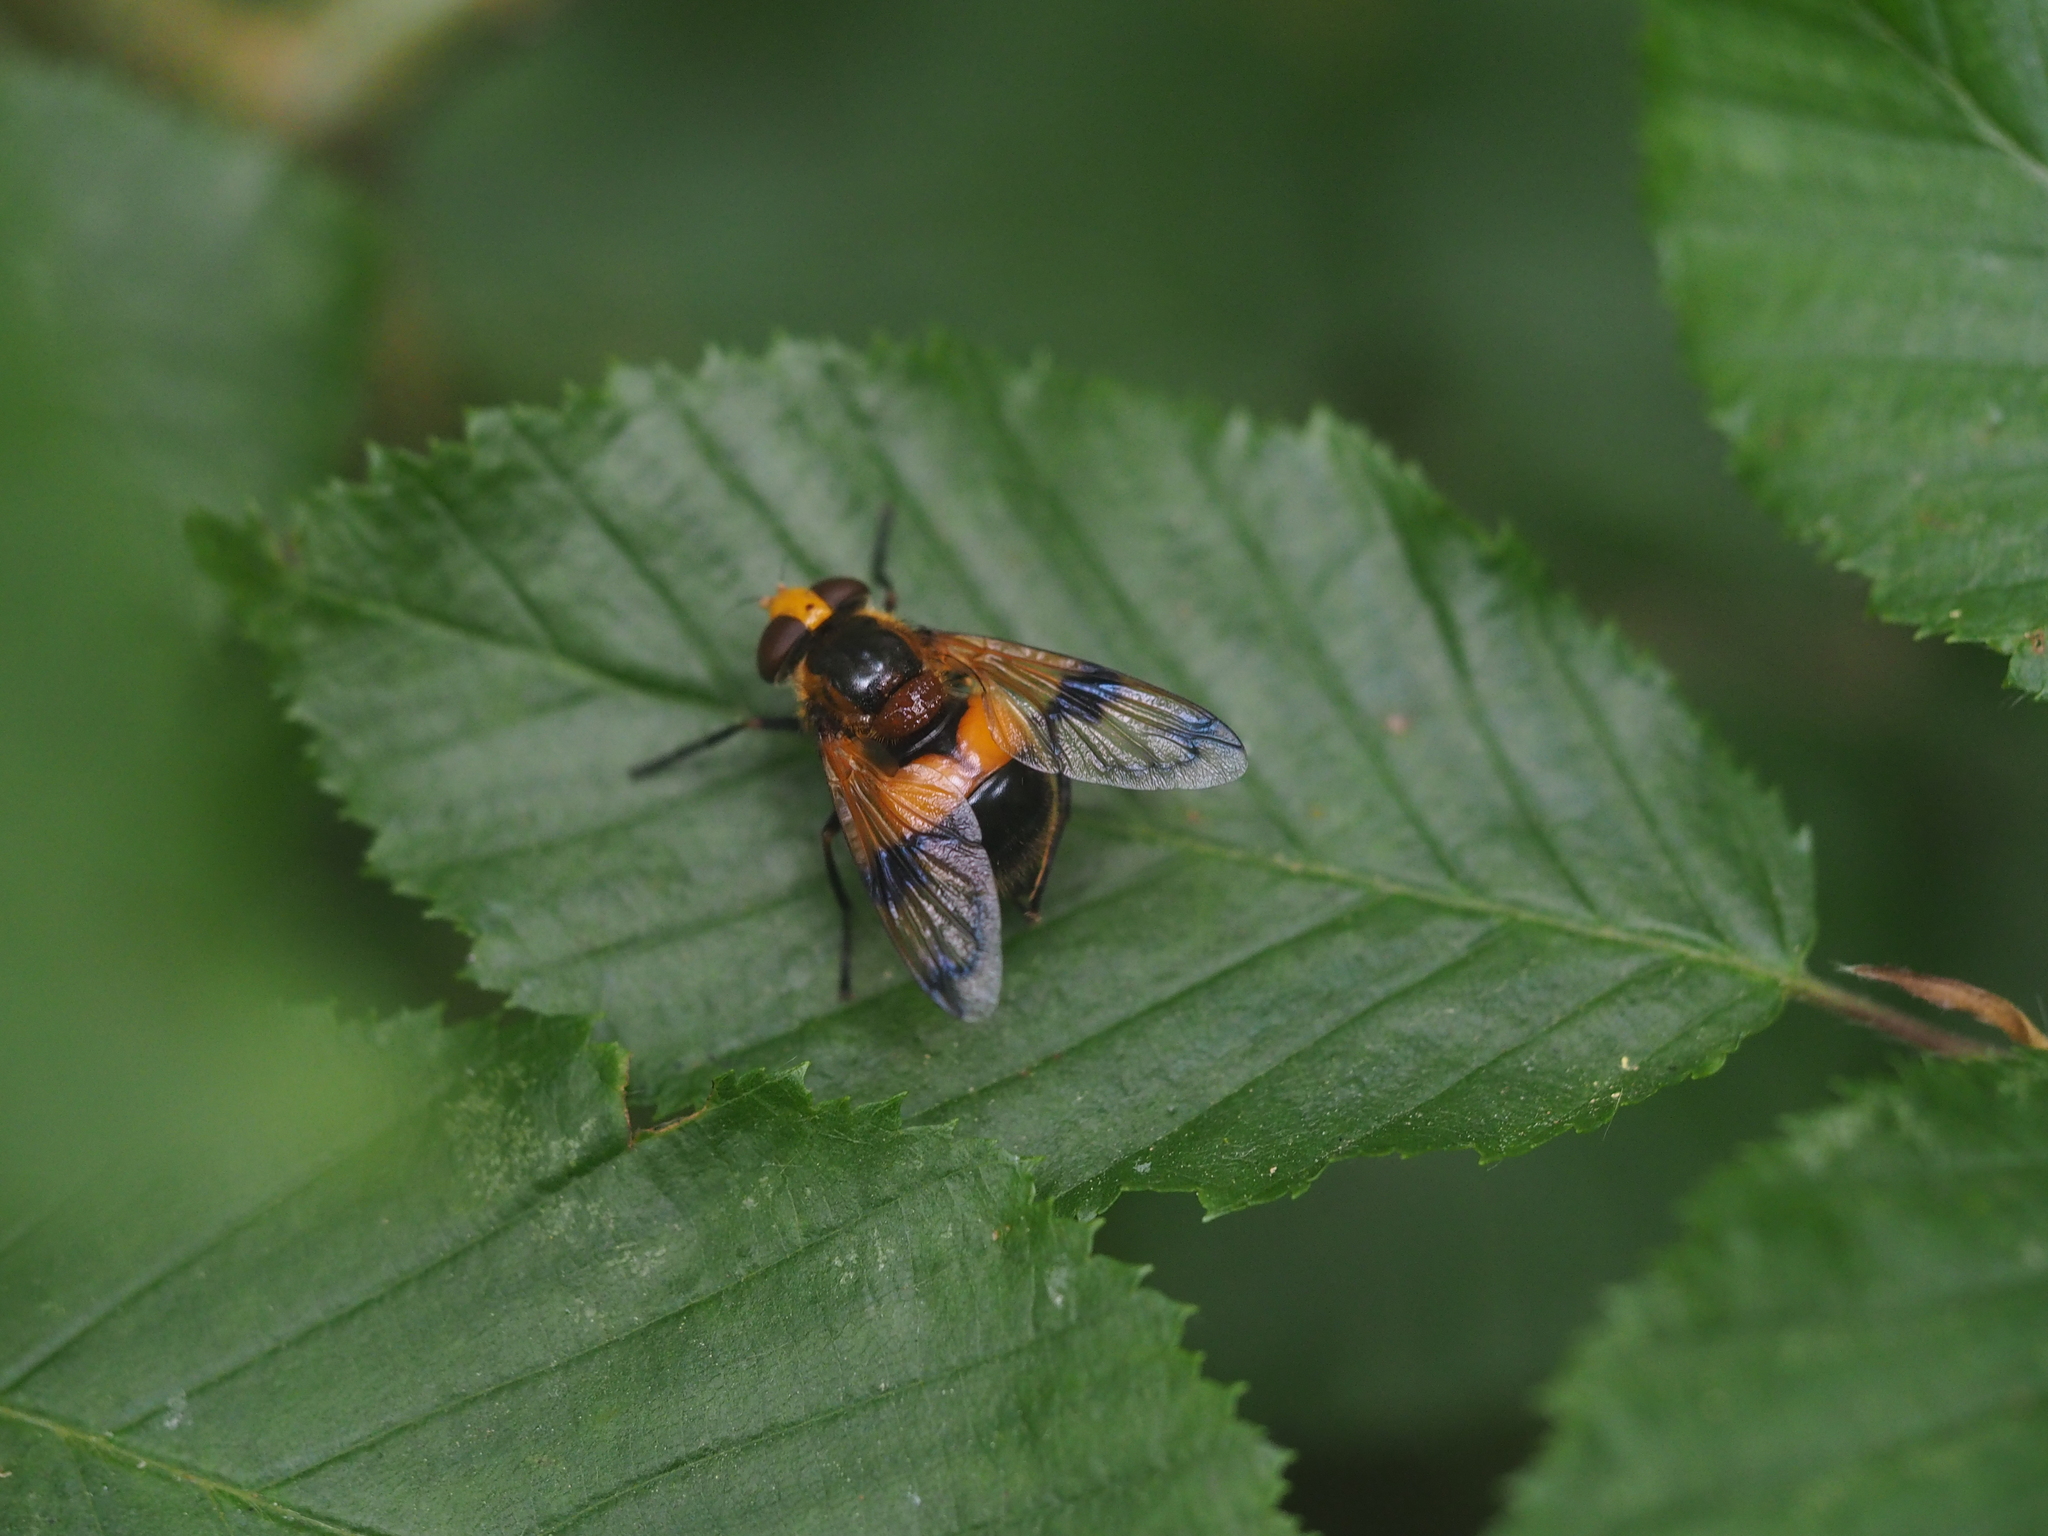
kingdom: Animalia
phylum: Arthropoda
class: Insecta
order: Diptera
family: Syrphidae
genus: Volucella
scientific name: Volucella inflata
